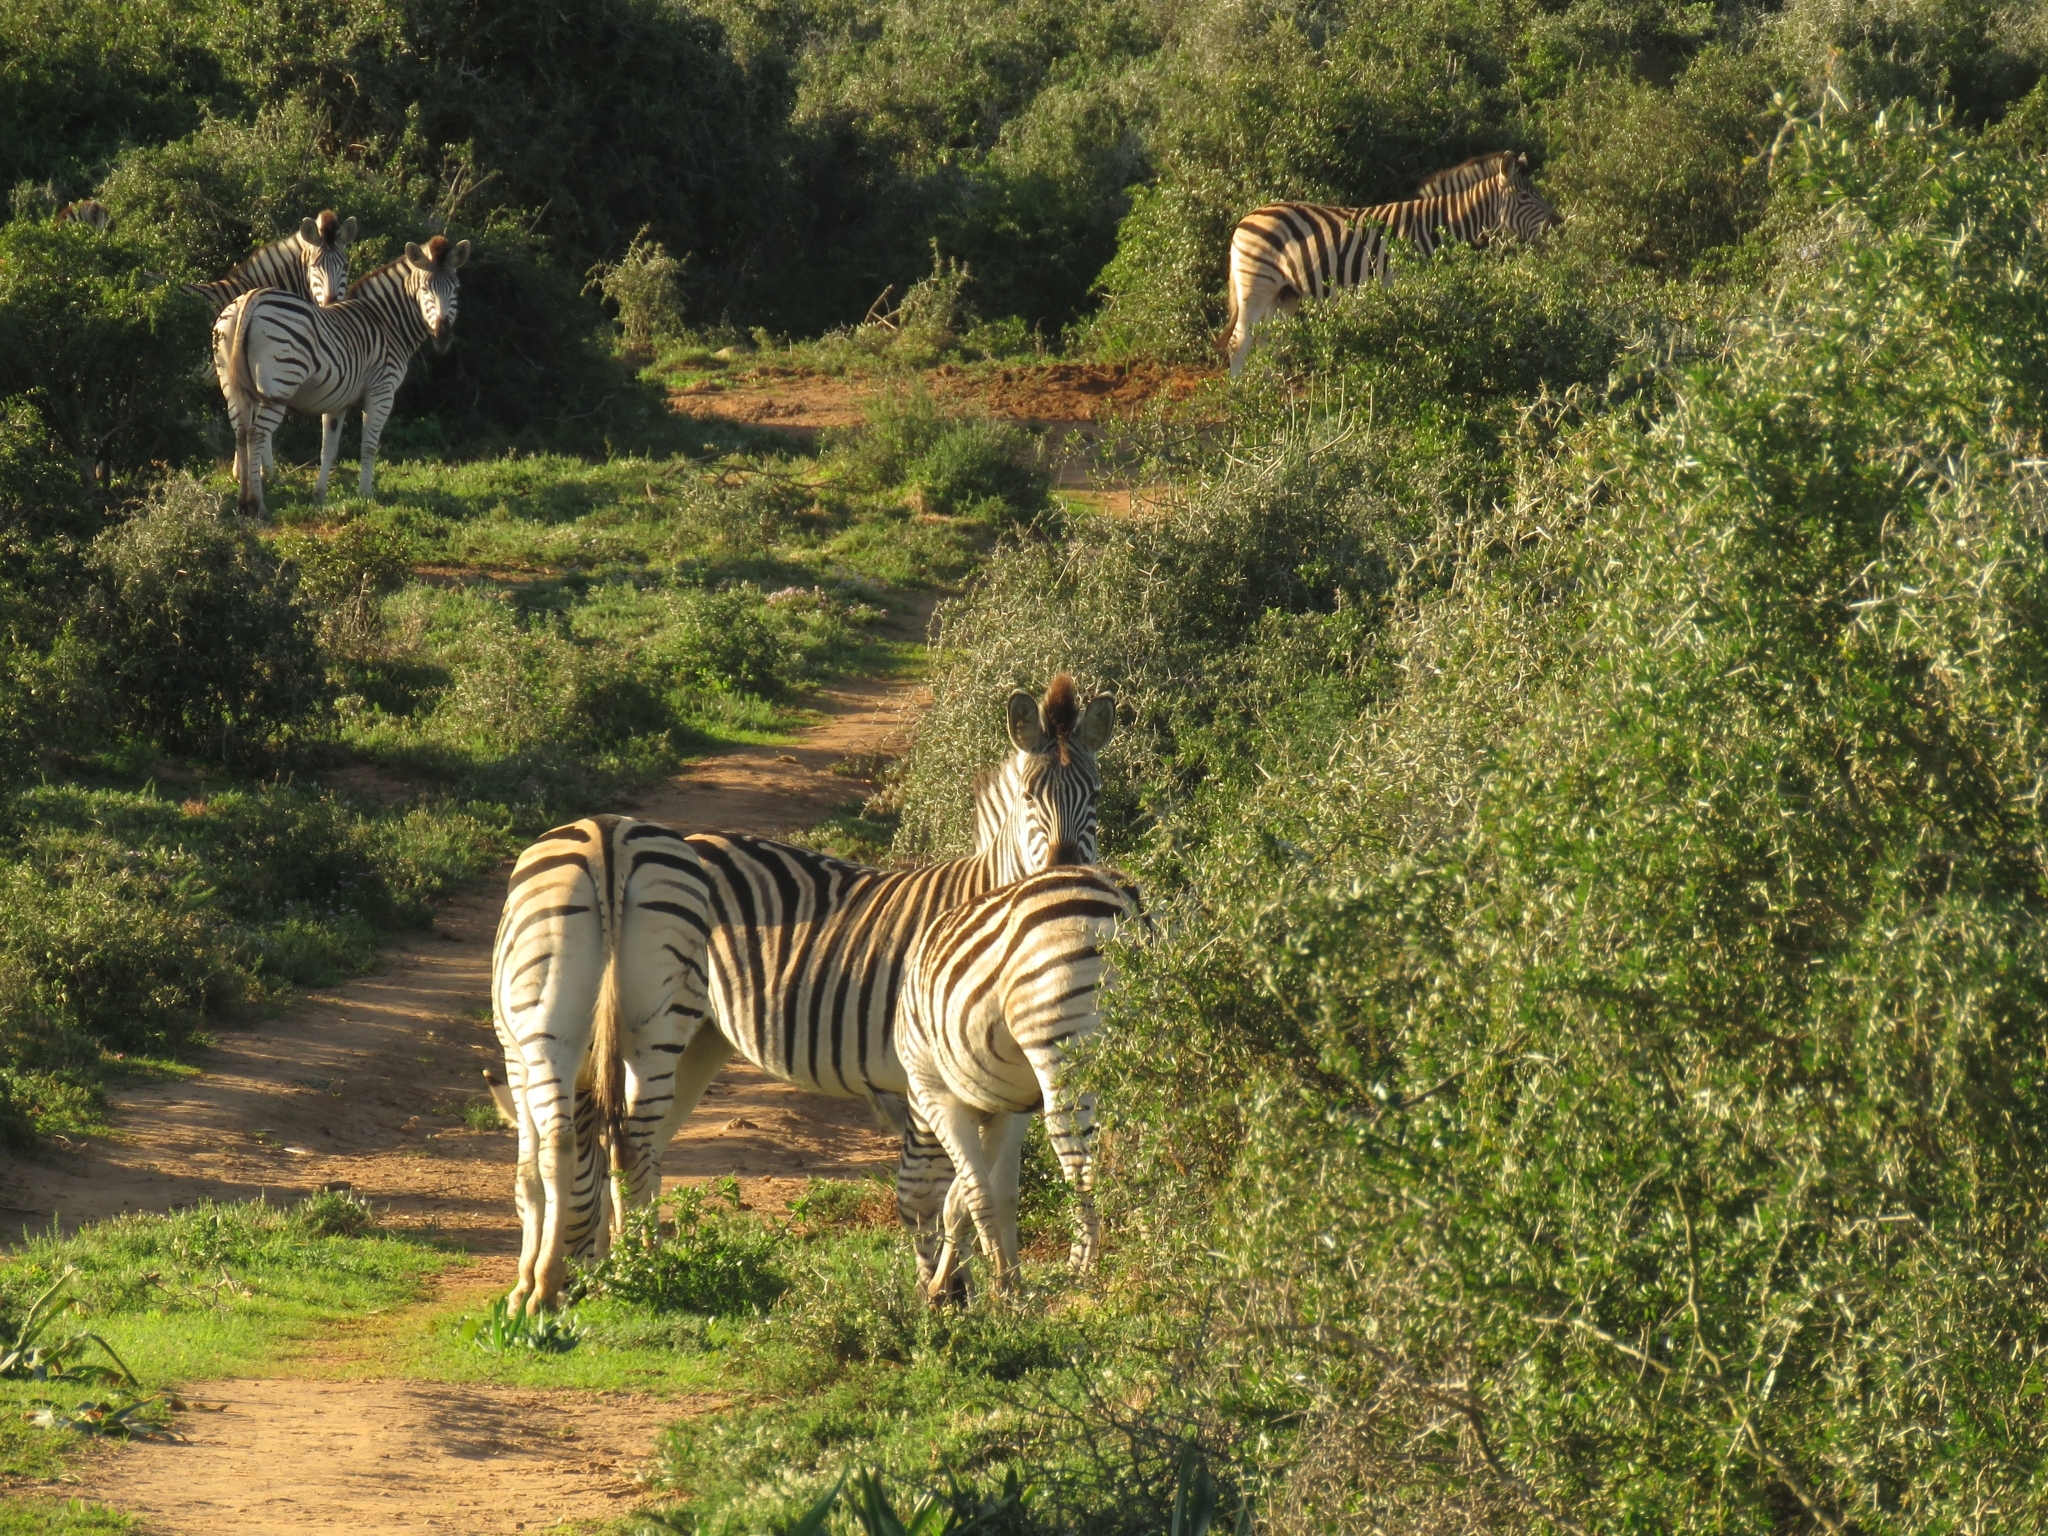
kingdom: Animalia
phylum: Chordata
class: Mammalia
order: Perissodactyla
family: Equidae
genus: Equus
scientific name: Equus quagga
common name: Plains zebra
